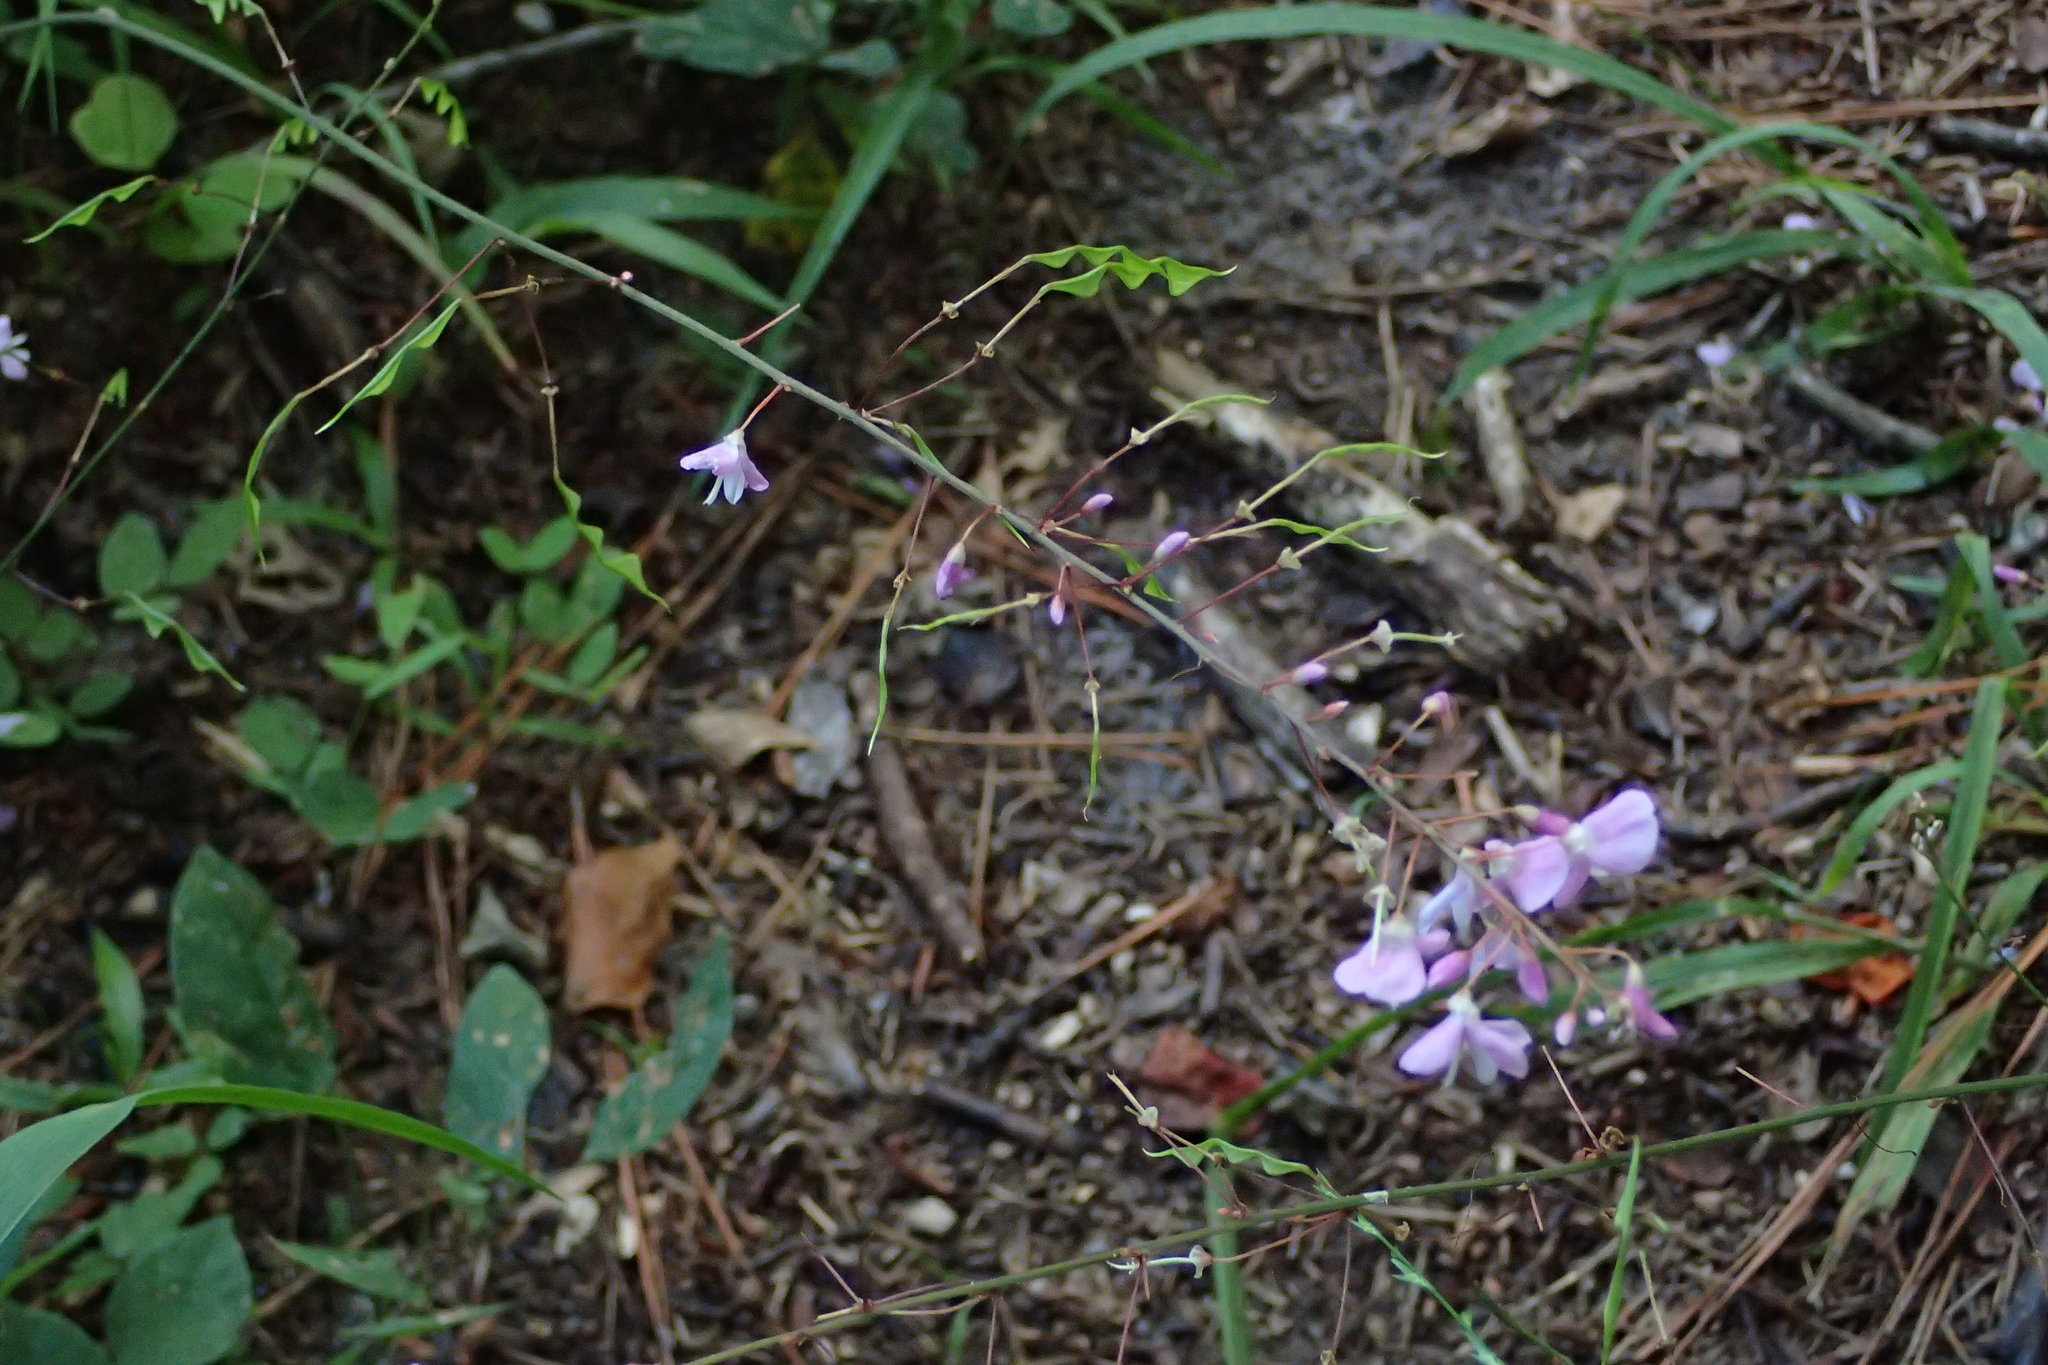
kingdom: Plantae
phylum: Tracheophyta
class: Magnoliopsida
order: Fabales
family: Fabaceae
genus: Hylodesmum
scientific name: Hylodesmum nudiflorum
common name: Bare-stemmed tick-trefoil
